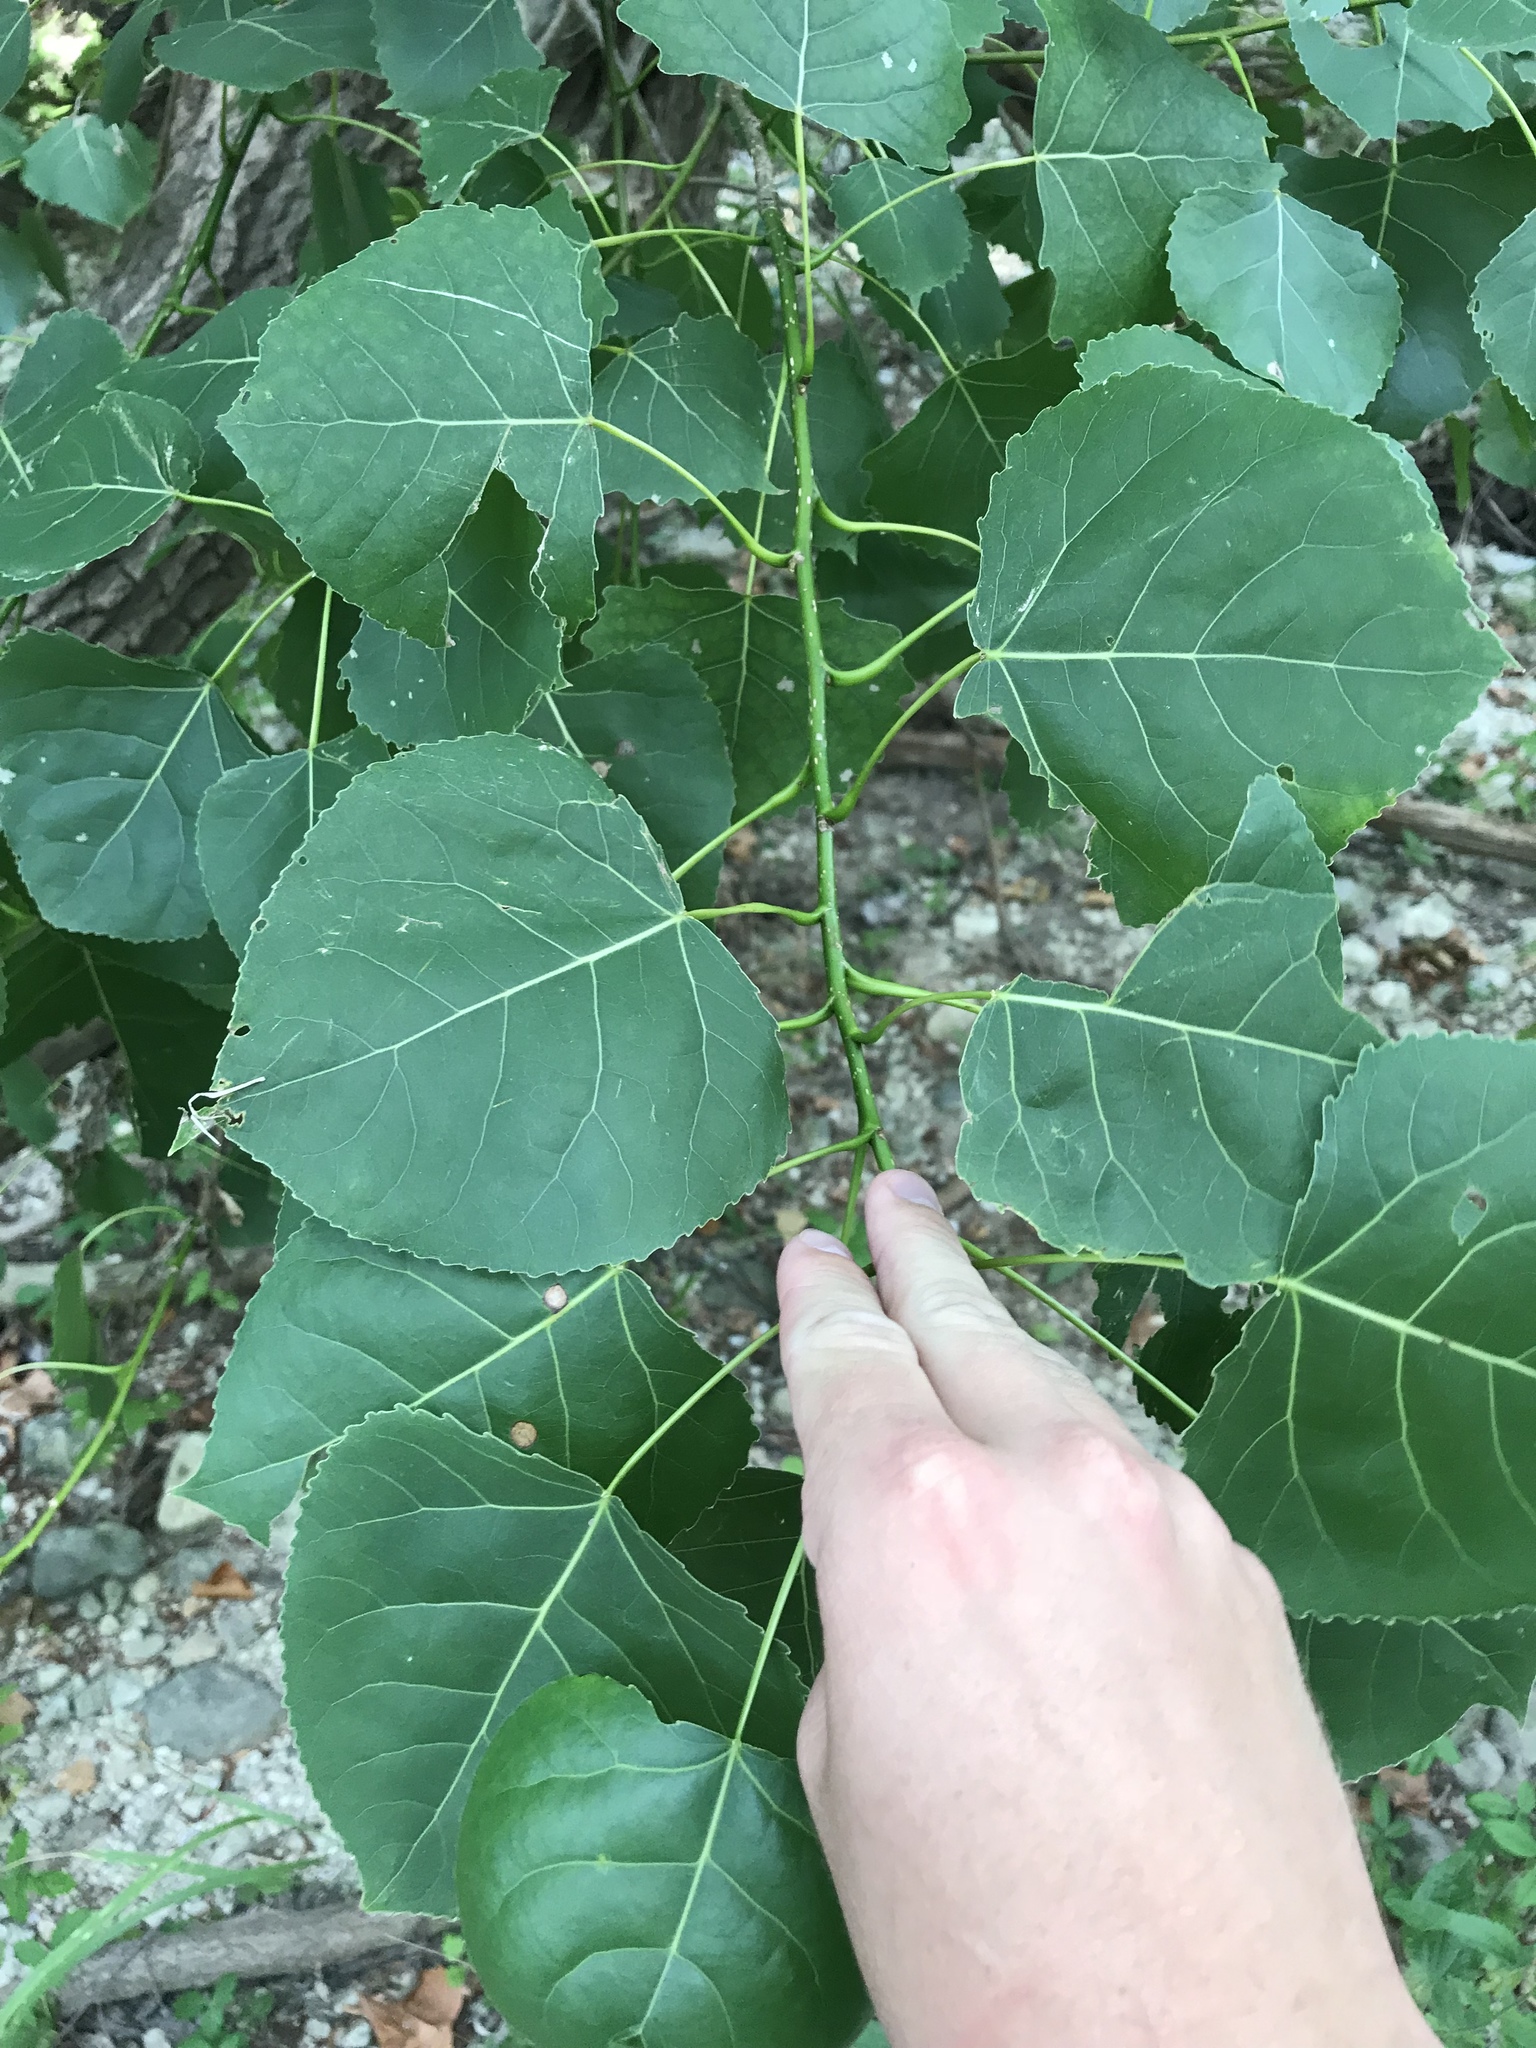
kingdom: Plantae
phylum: Tracheophyta
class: Magnoliopsida
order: Malpighiales
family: Salicaceae
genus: Populus
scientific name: Populus deltoides
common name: Eastern cottonwood
